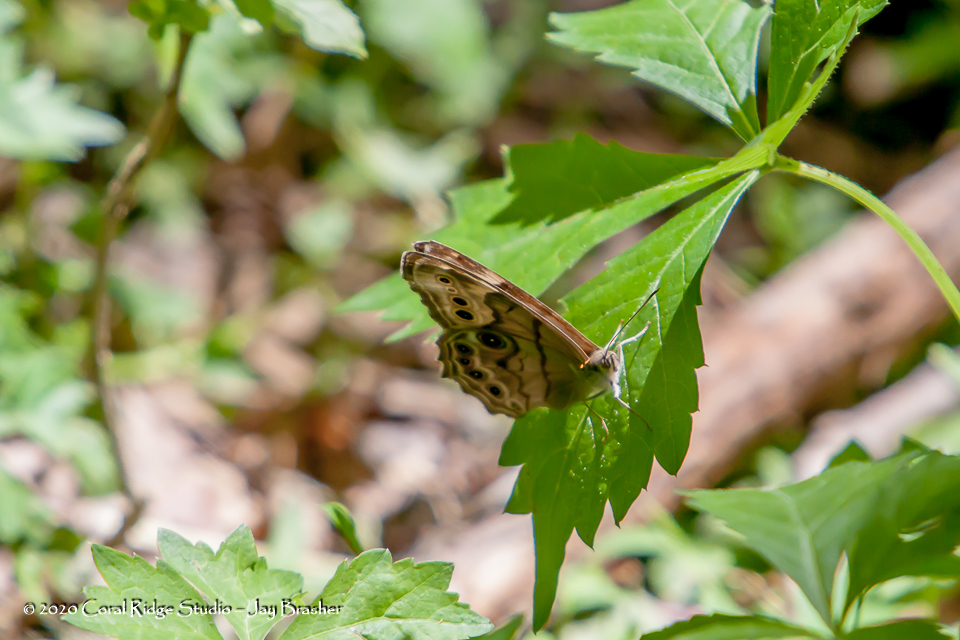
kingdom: Animalia
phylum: Arthropoda
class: Insecta
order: Lepidoptera
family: Nymphalidae
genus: Lethe
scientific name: Lethe anthedon
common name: Northern pearly-eye
